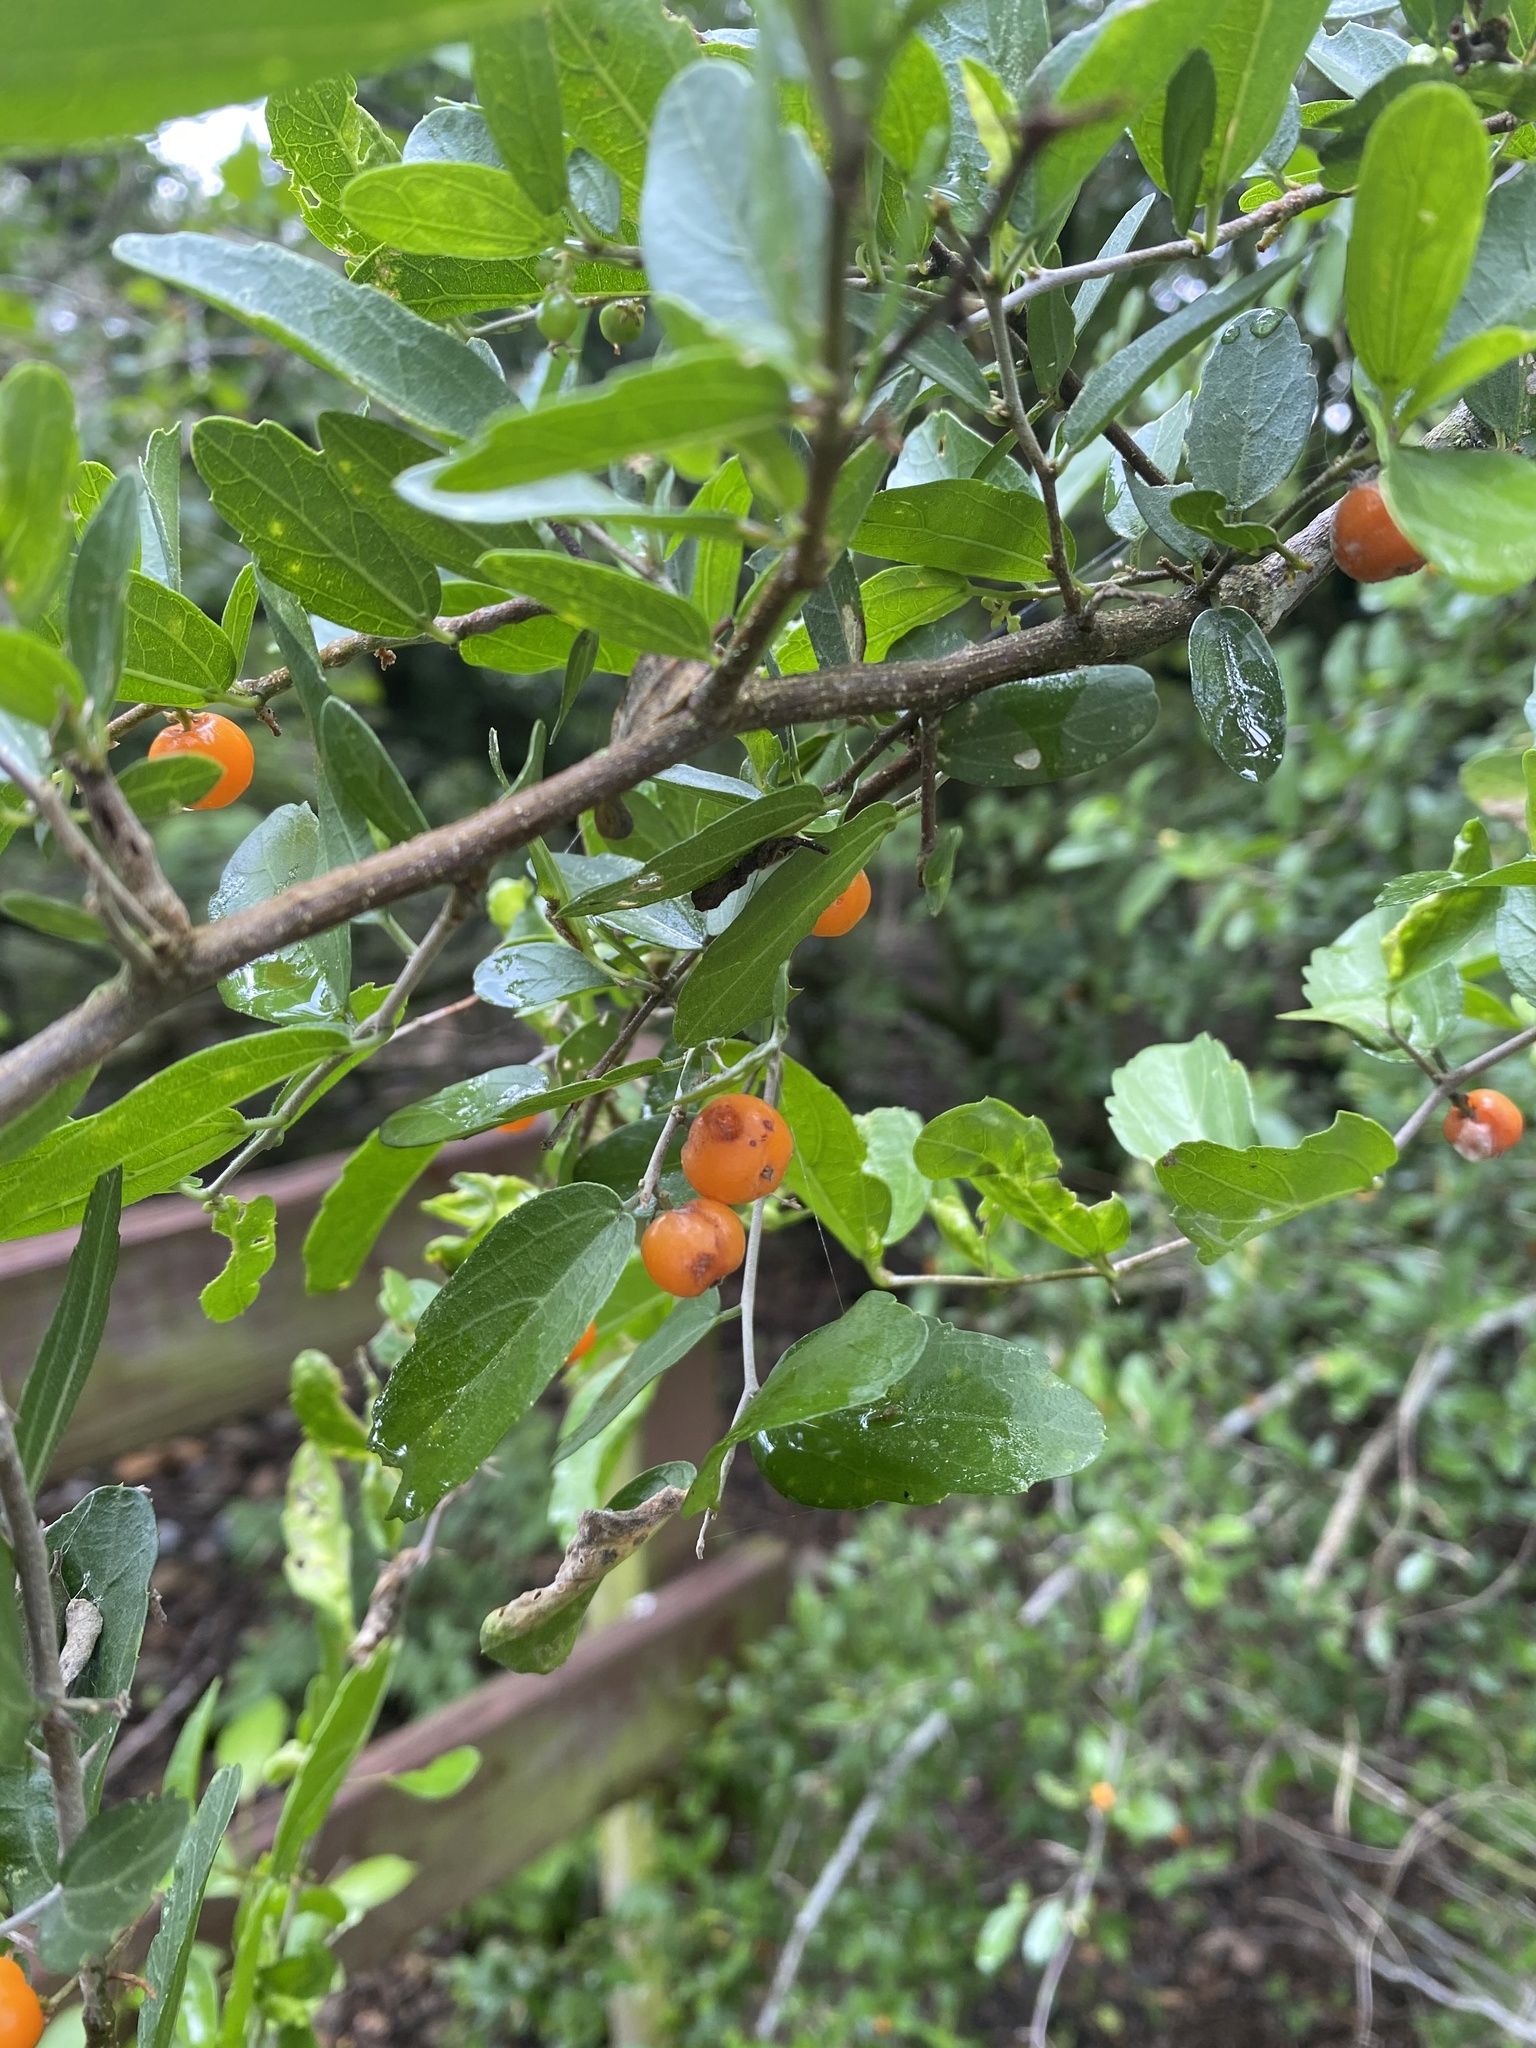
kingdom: Plantae
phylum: Tracheophyta
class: Magnoliopsida
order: Rosales
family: Cannabaceae
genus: Celtis
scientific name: Celtis pallida
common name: Desert hackberry
